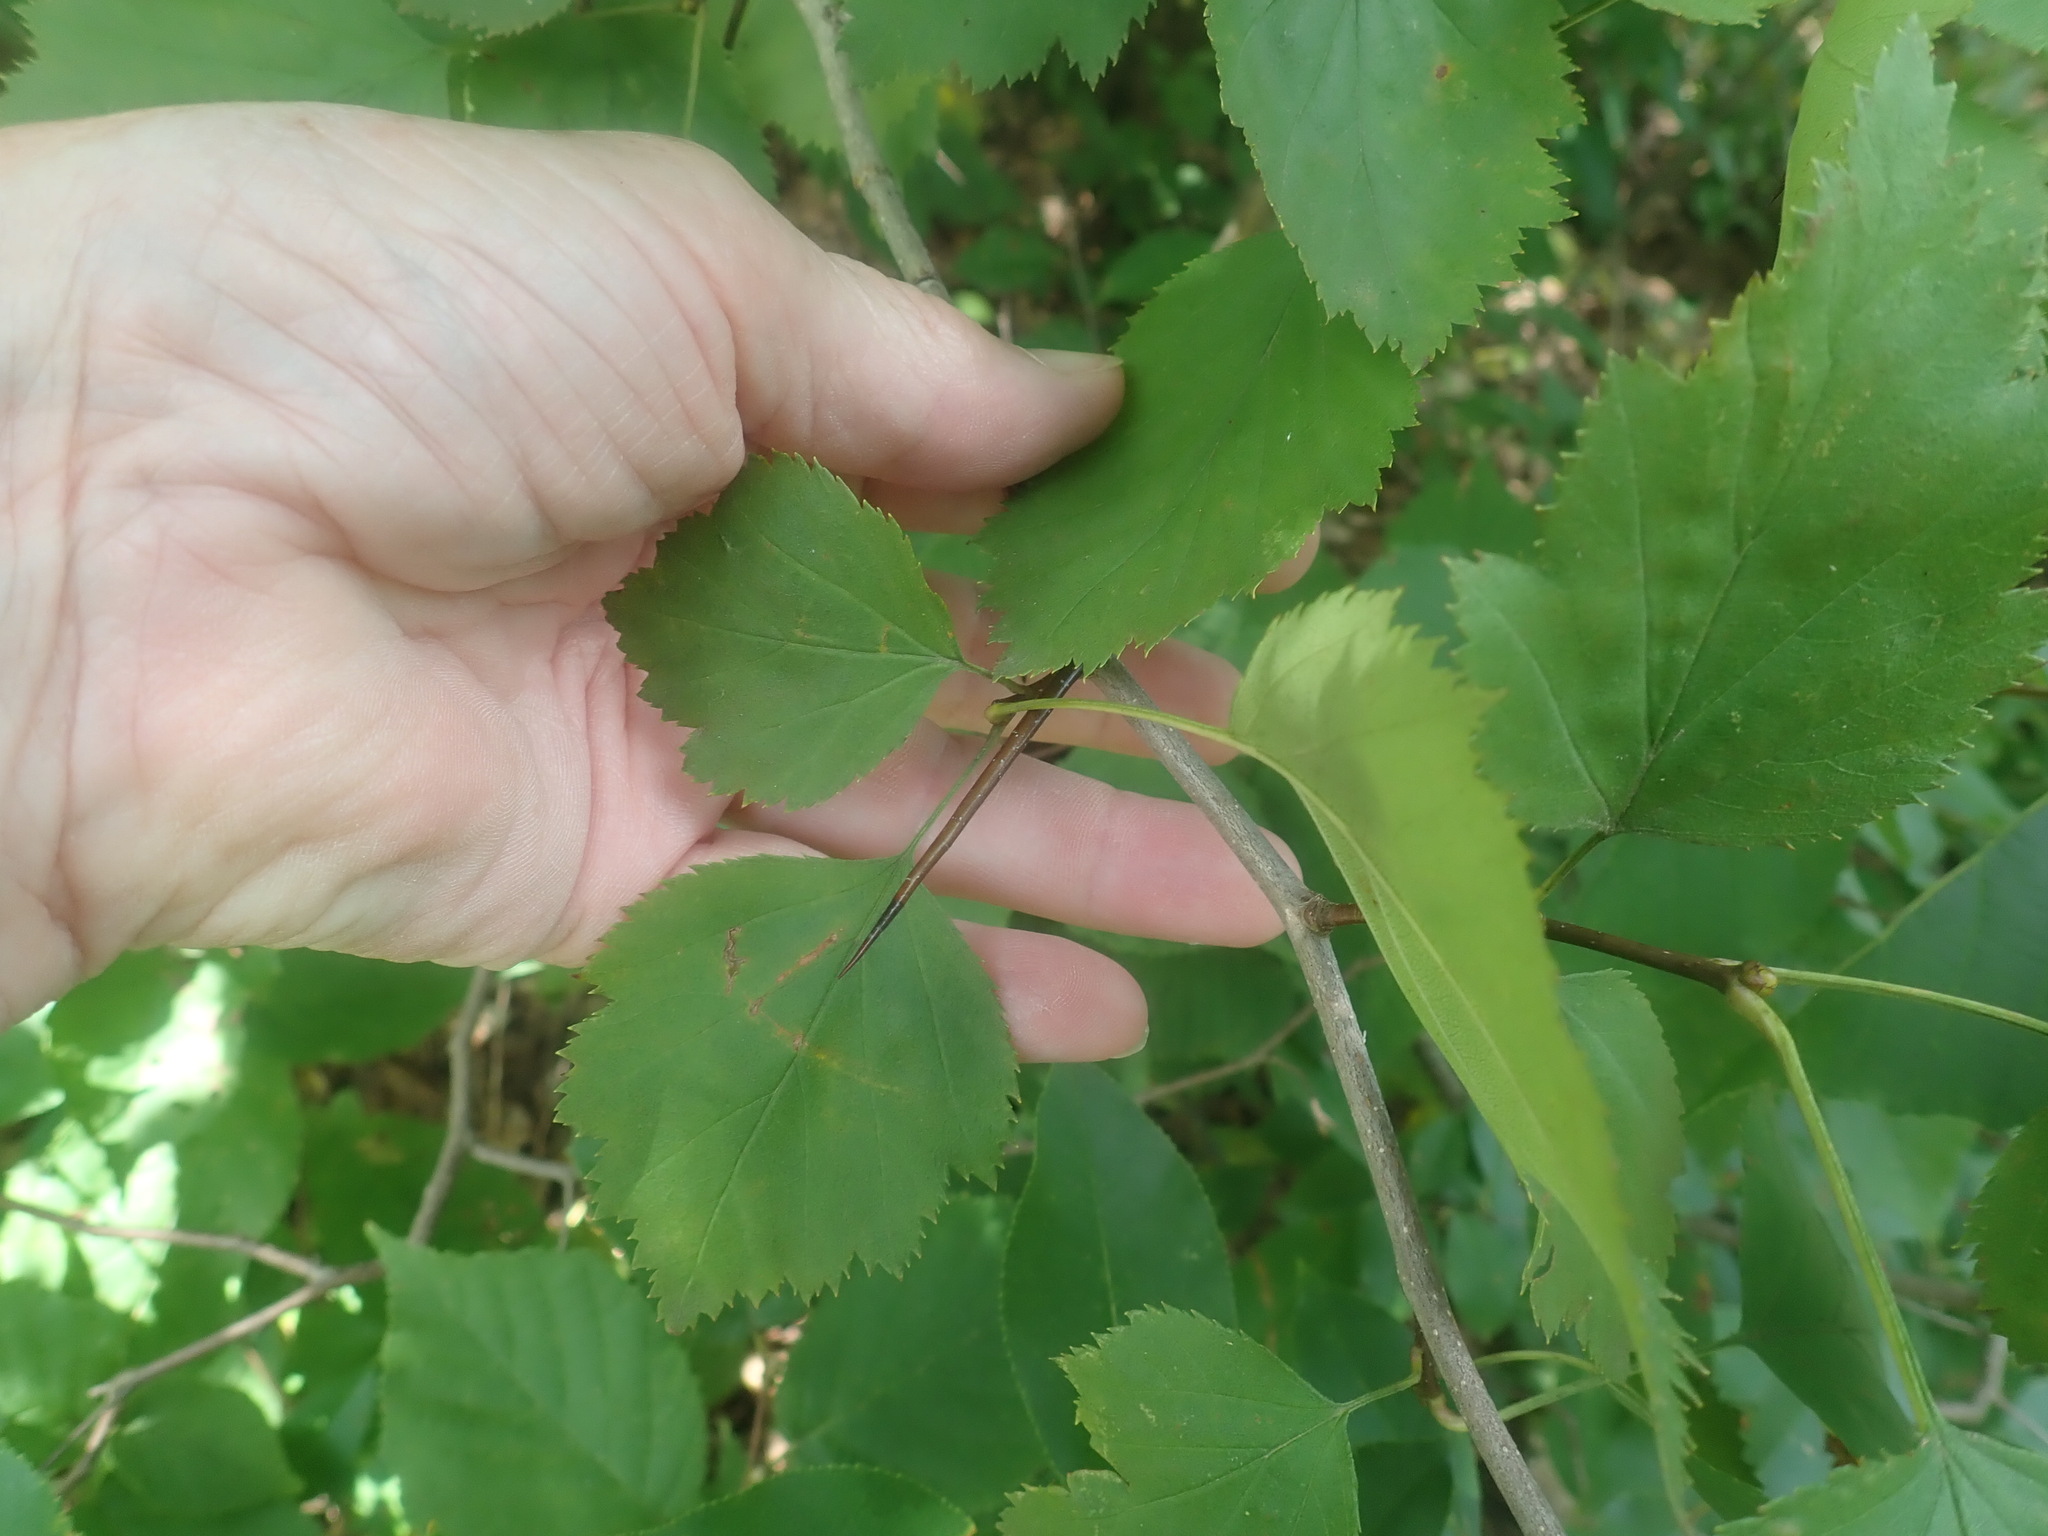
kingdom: Plantae
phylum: Tracheophyta
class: Magnoliopsida
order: Rosales
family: Rosaceae
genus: Crataegus
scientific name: Crataegus
